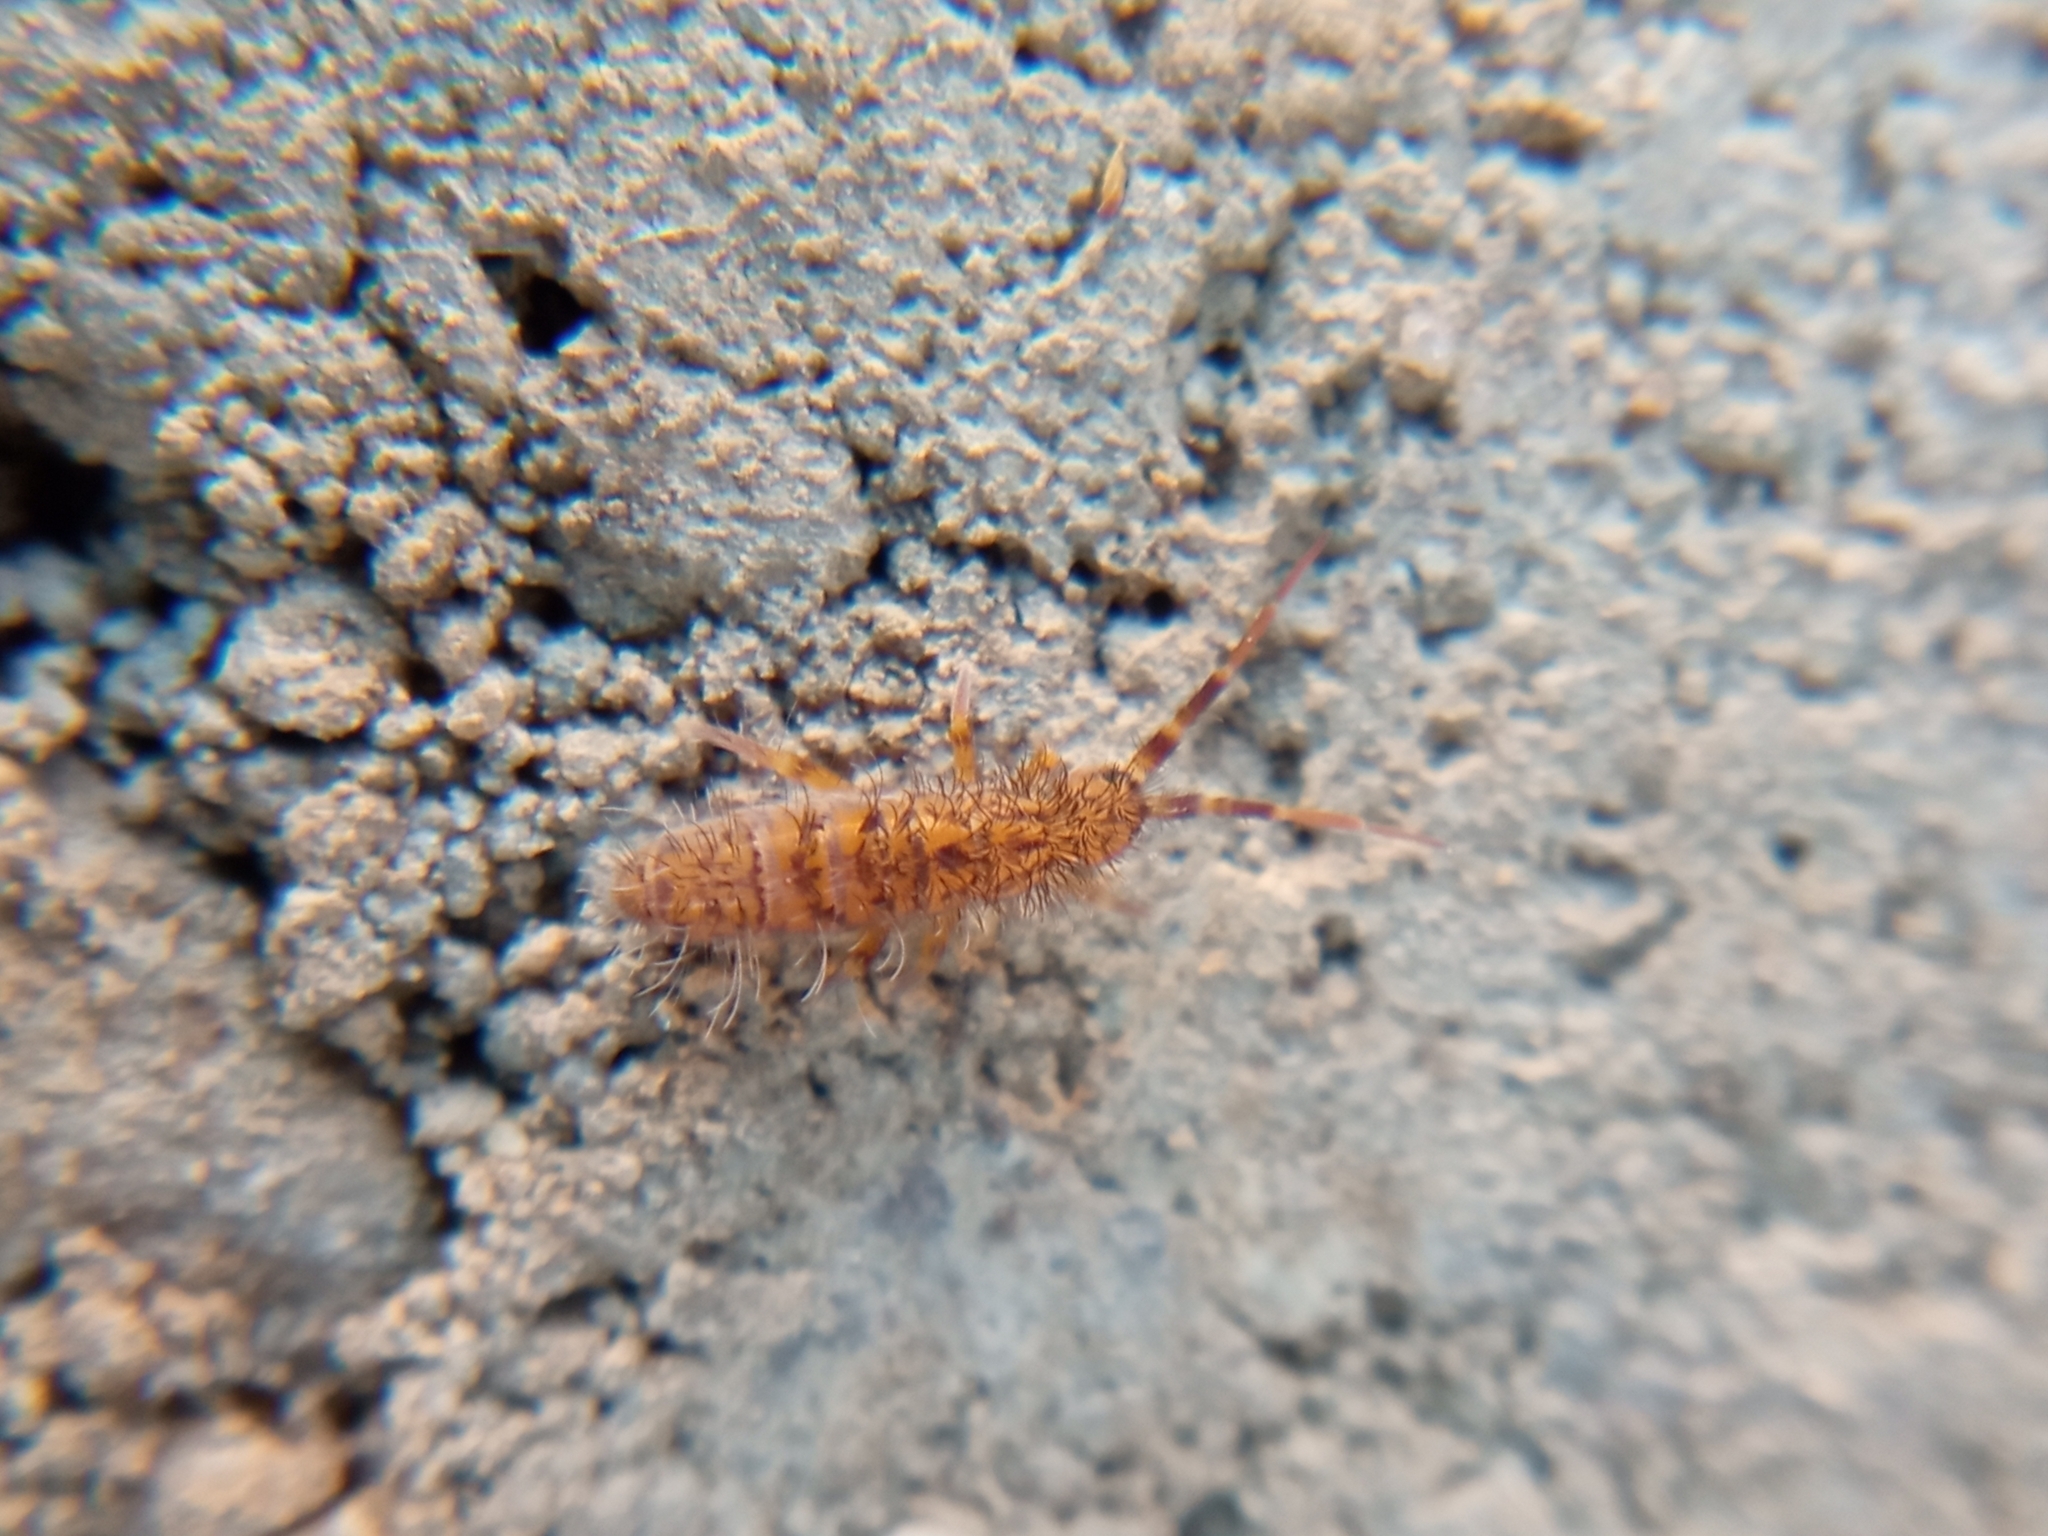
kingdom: Animalia
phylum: Arthropoda
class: Collembola
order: Entomobryomorpha
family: Orchesellidae
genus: Orchesella
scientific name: Orchesella villosa
